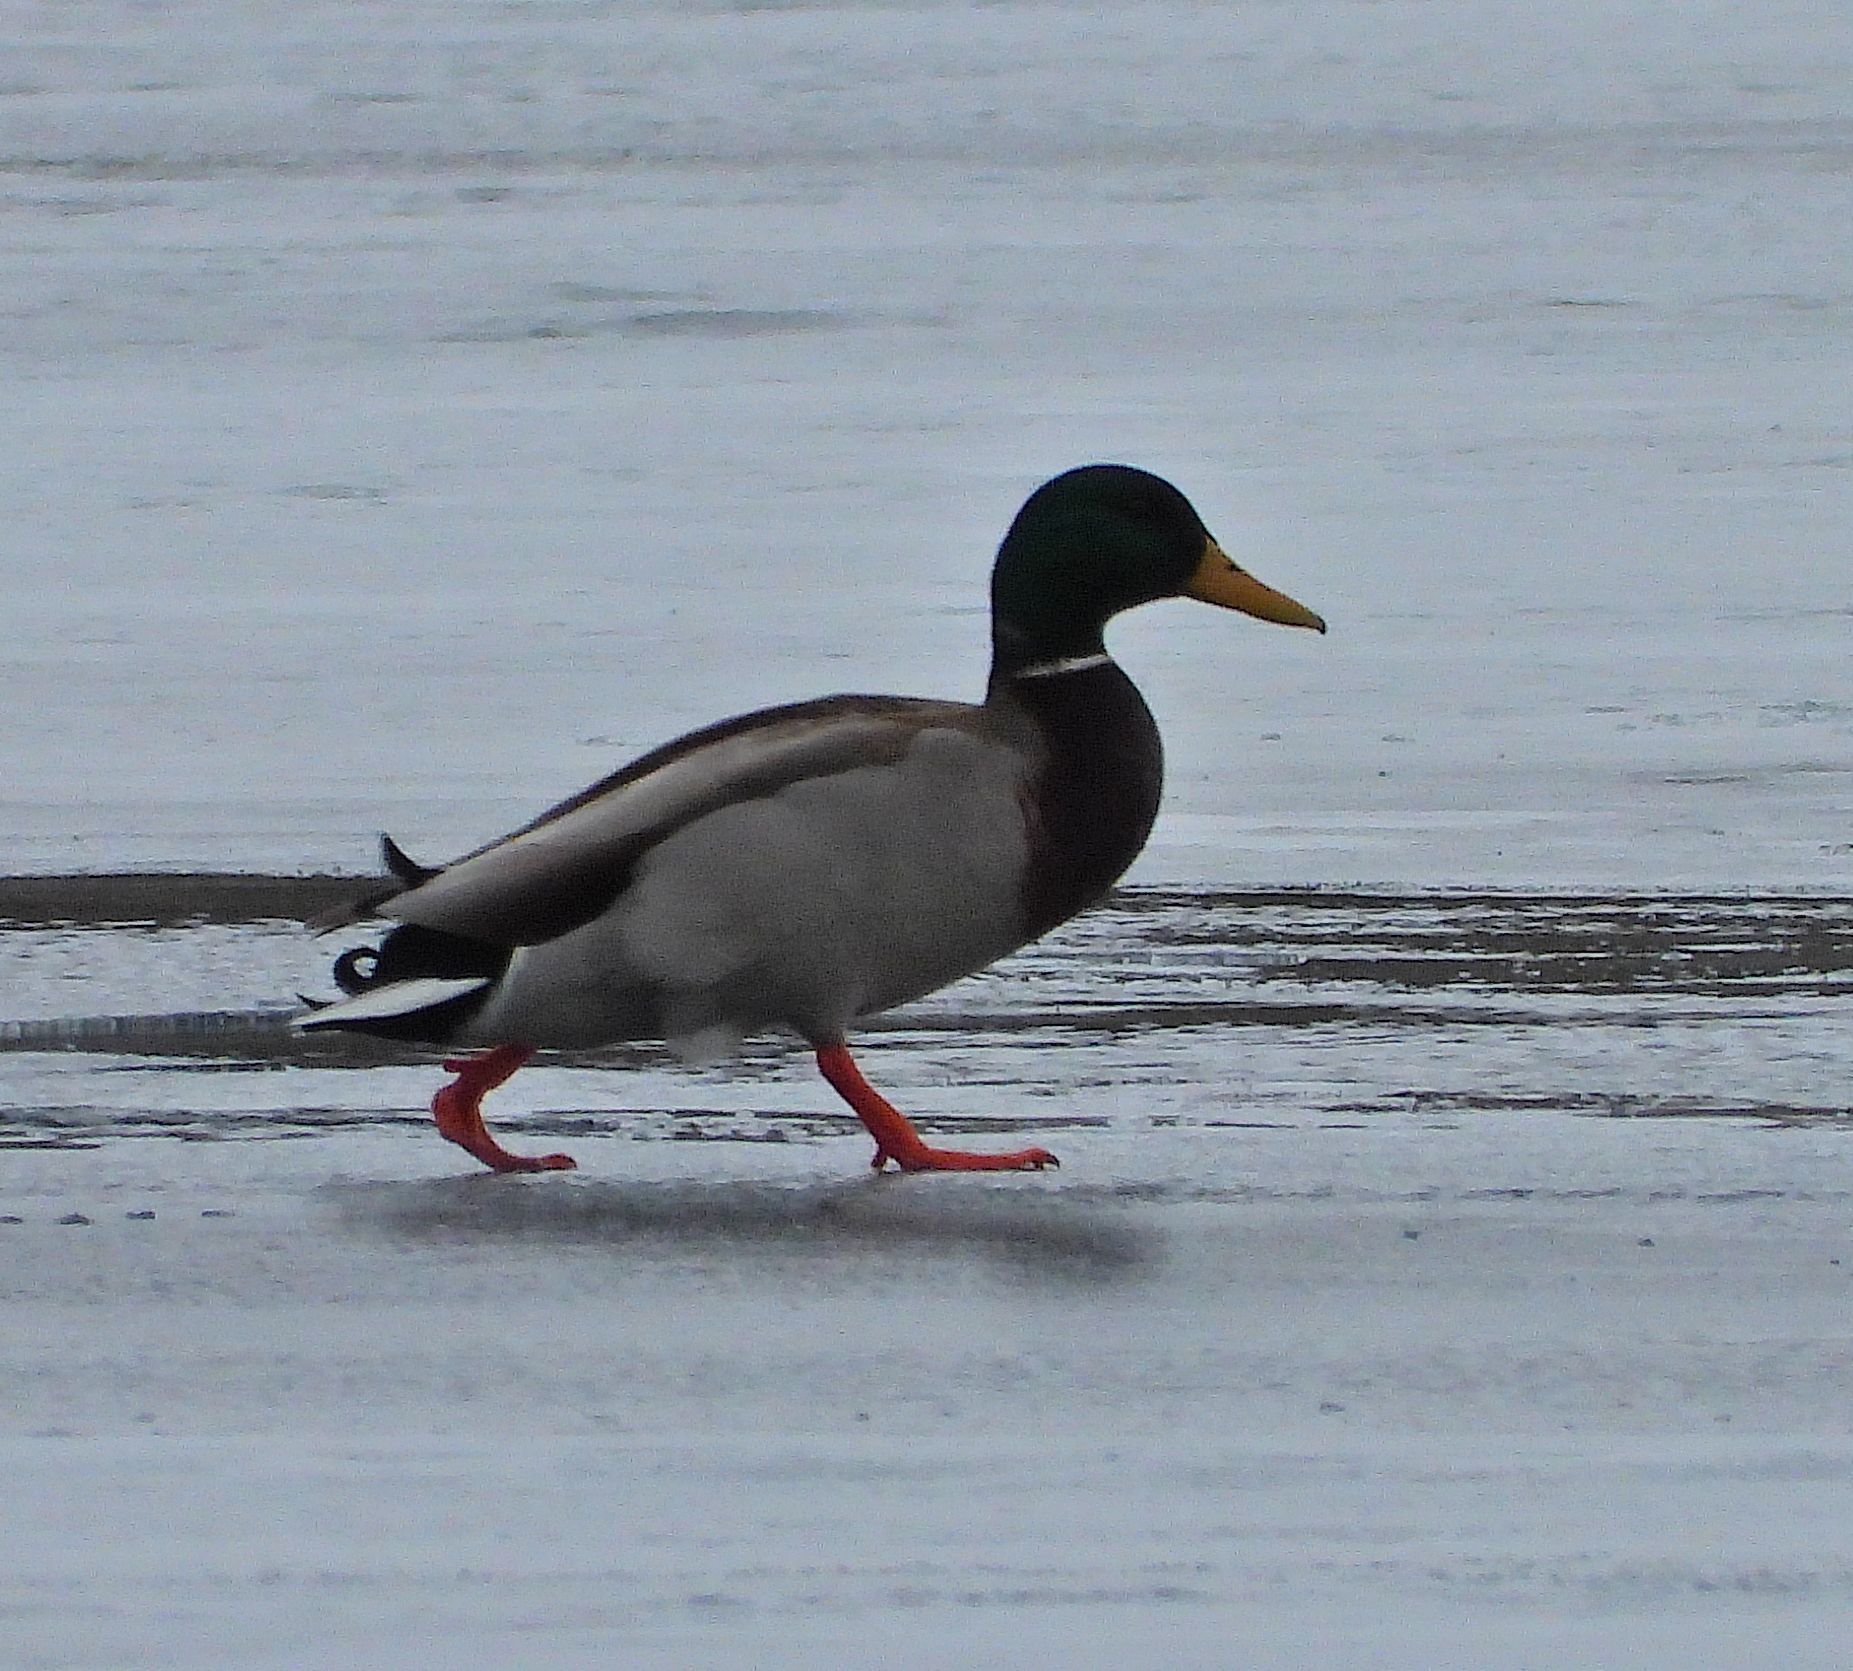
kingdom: Animalia
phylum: Chordata
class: Aves
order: Anseriformes
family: Anatidae
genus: Anas
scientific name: Anas platyrhynchos
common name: Mallard
